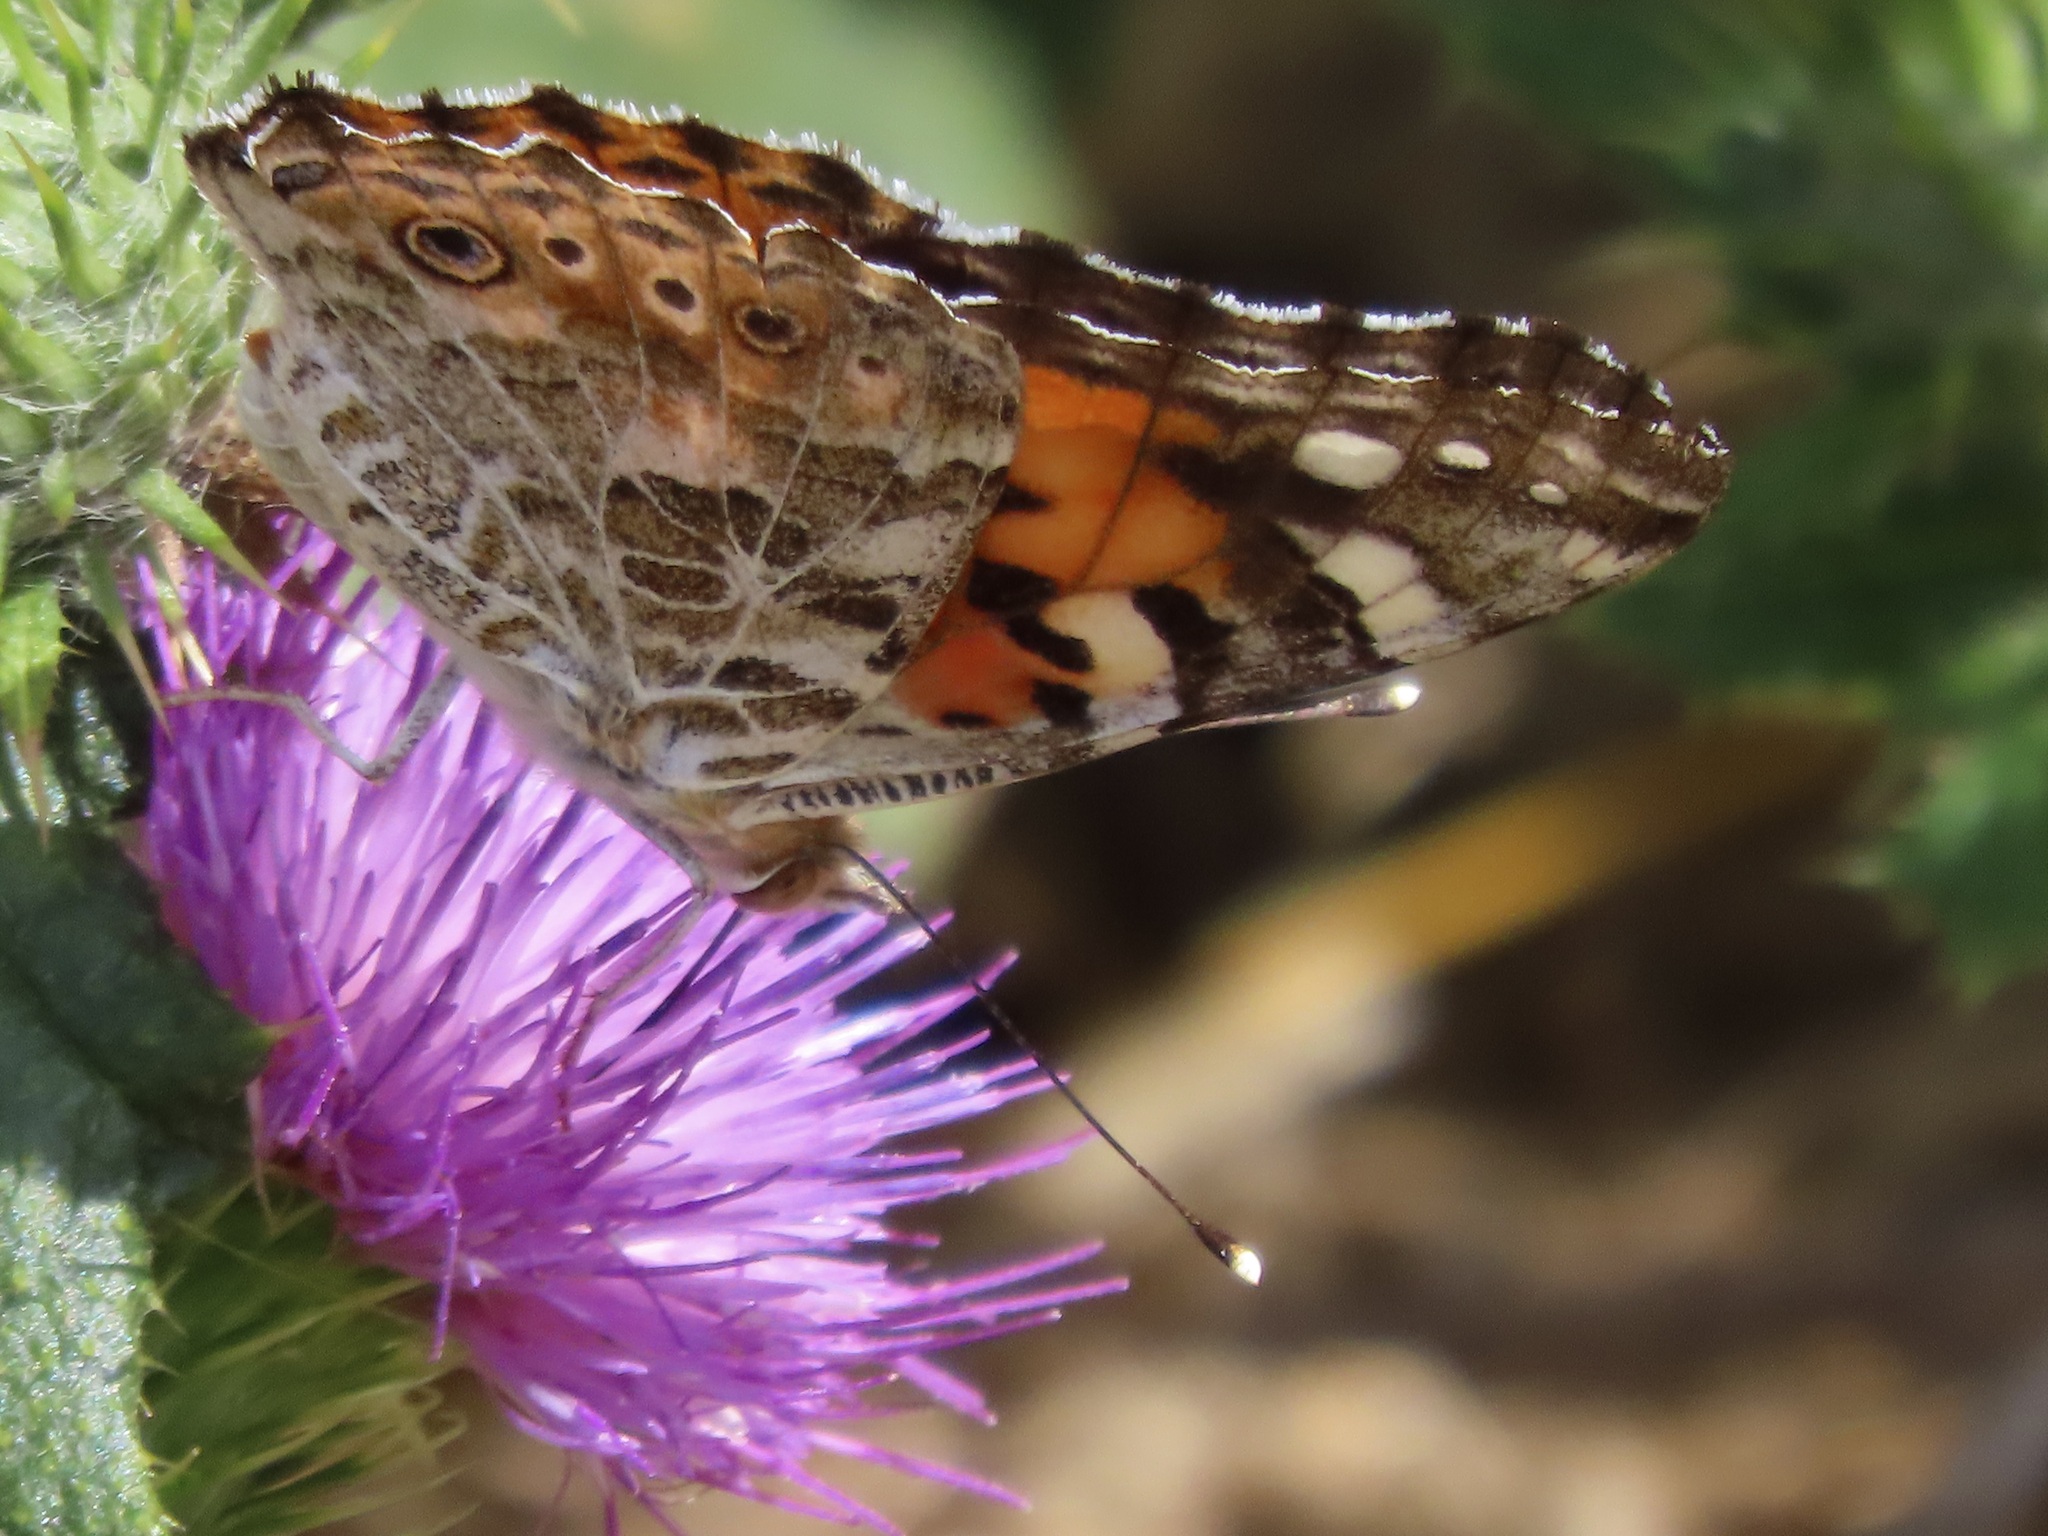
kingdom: Animalia
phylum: Arthropoda
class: Insecta
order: Lepidoptera
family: Nymphalidae
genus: Vanessa
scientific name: Vanessa cardui
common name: Painted lady
